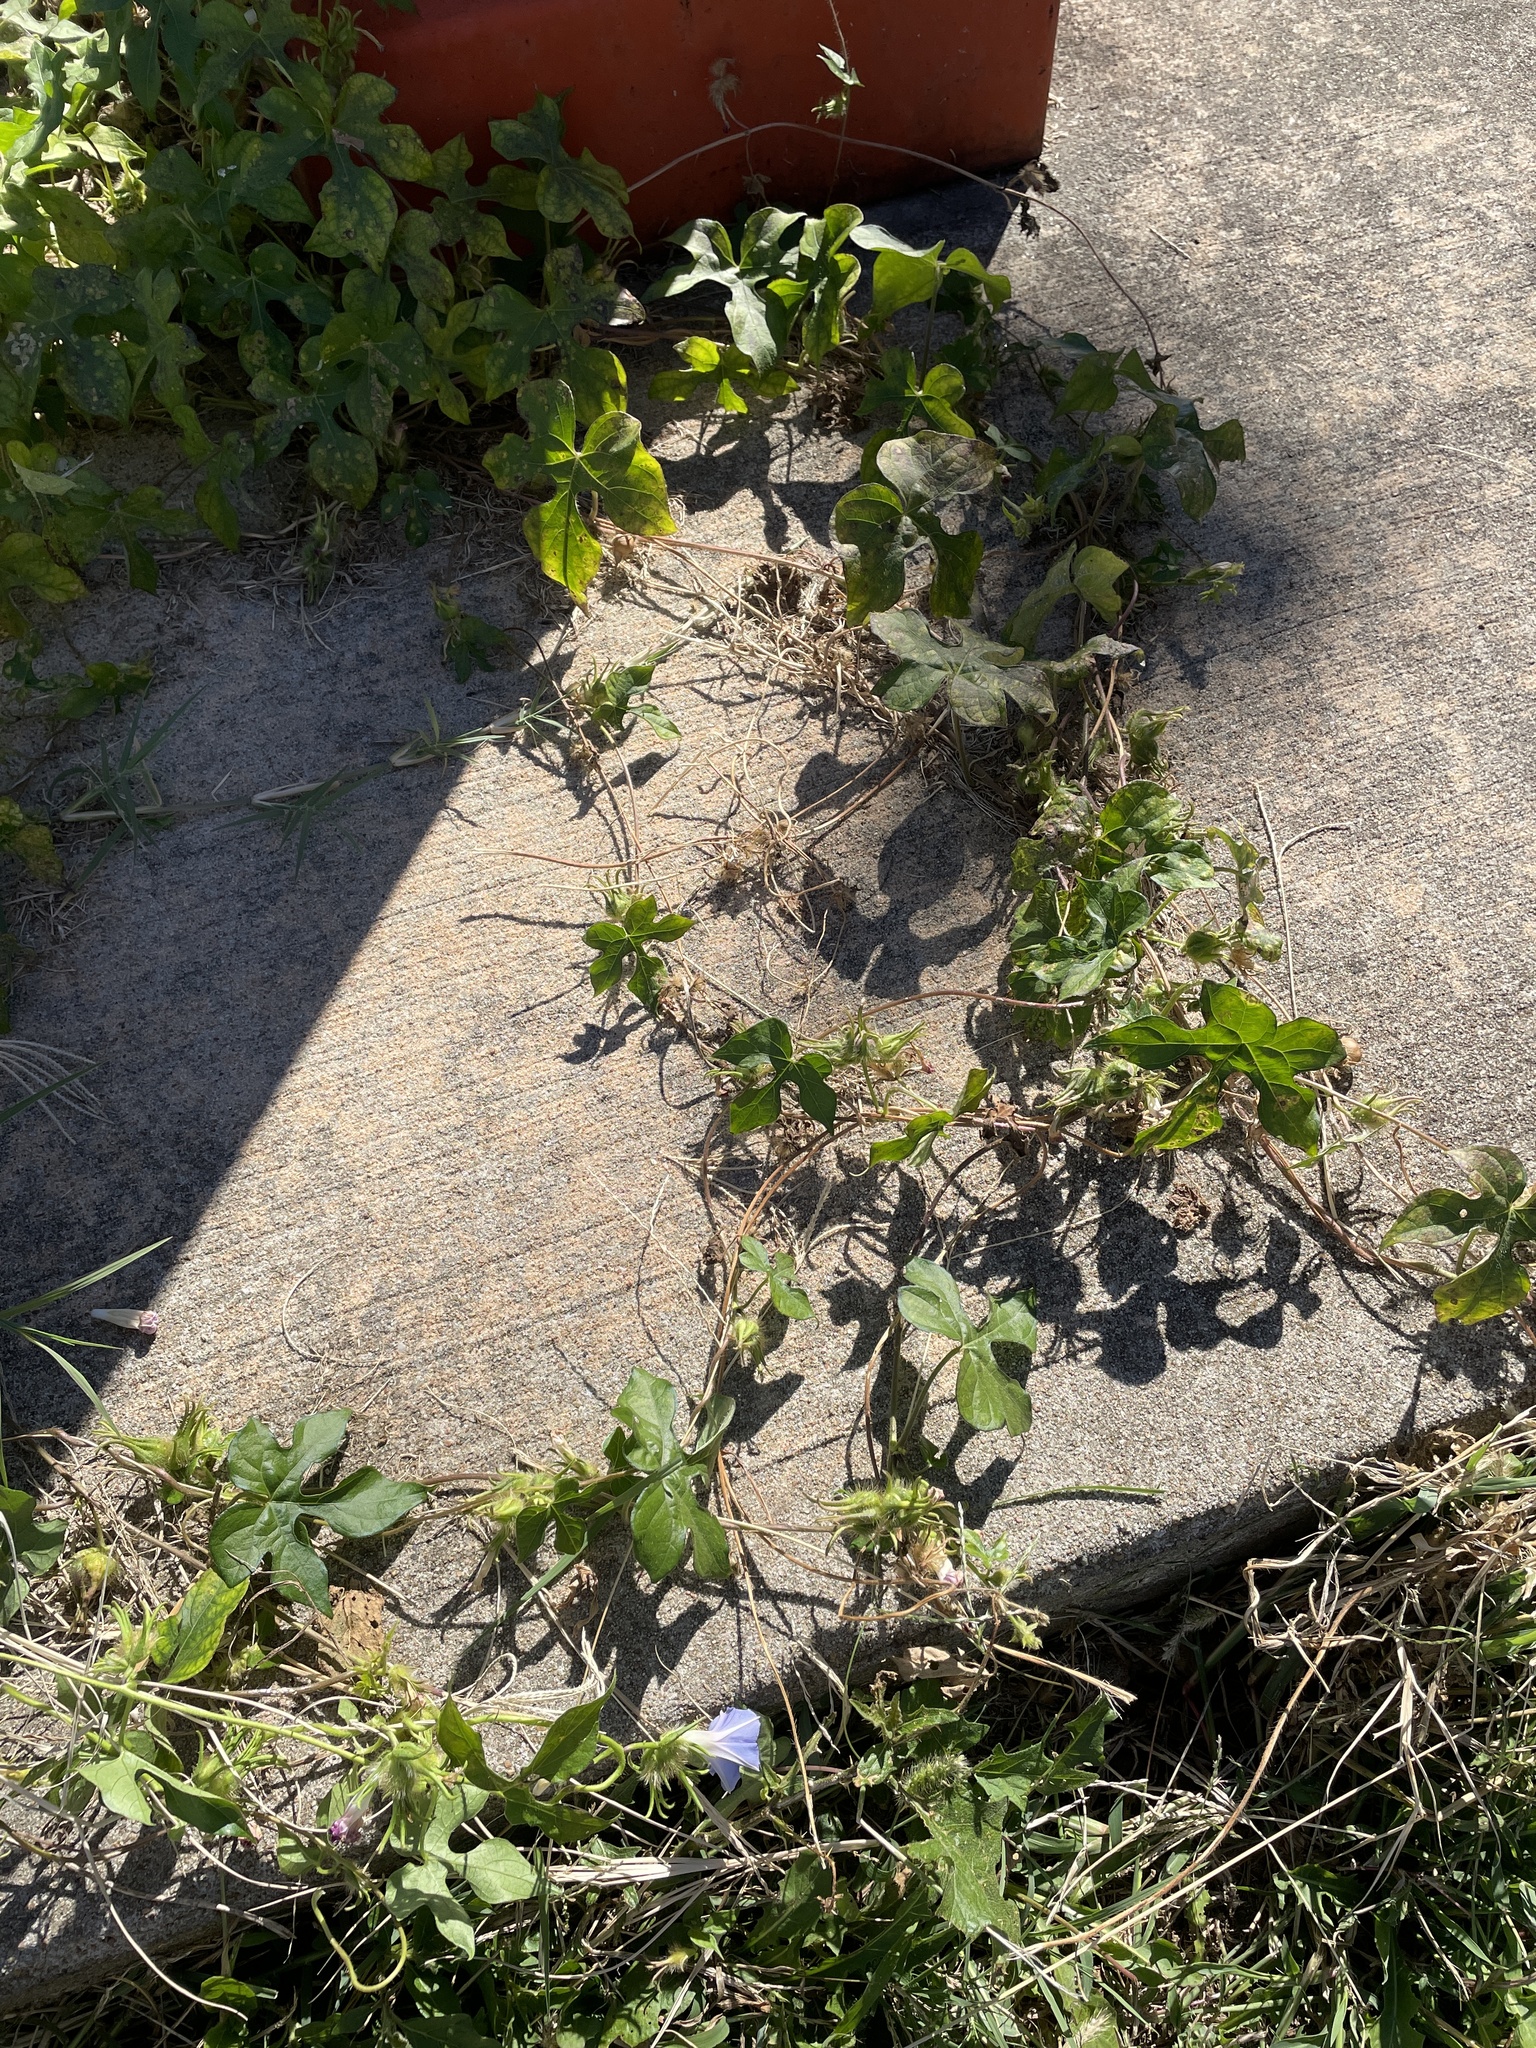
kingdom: Plantae
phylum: Tracheophyta
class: Magnoliopsida
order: Solanales
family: Convolvulaceae
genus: Ipomoea
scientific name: Ipomoea hederacea
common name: Ivy-leaved morning-glory
